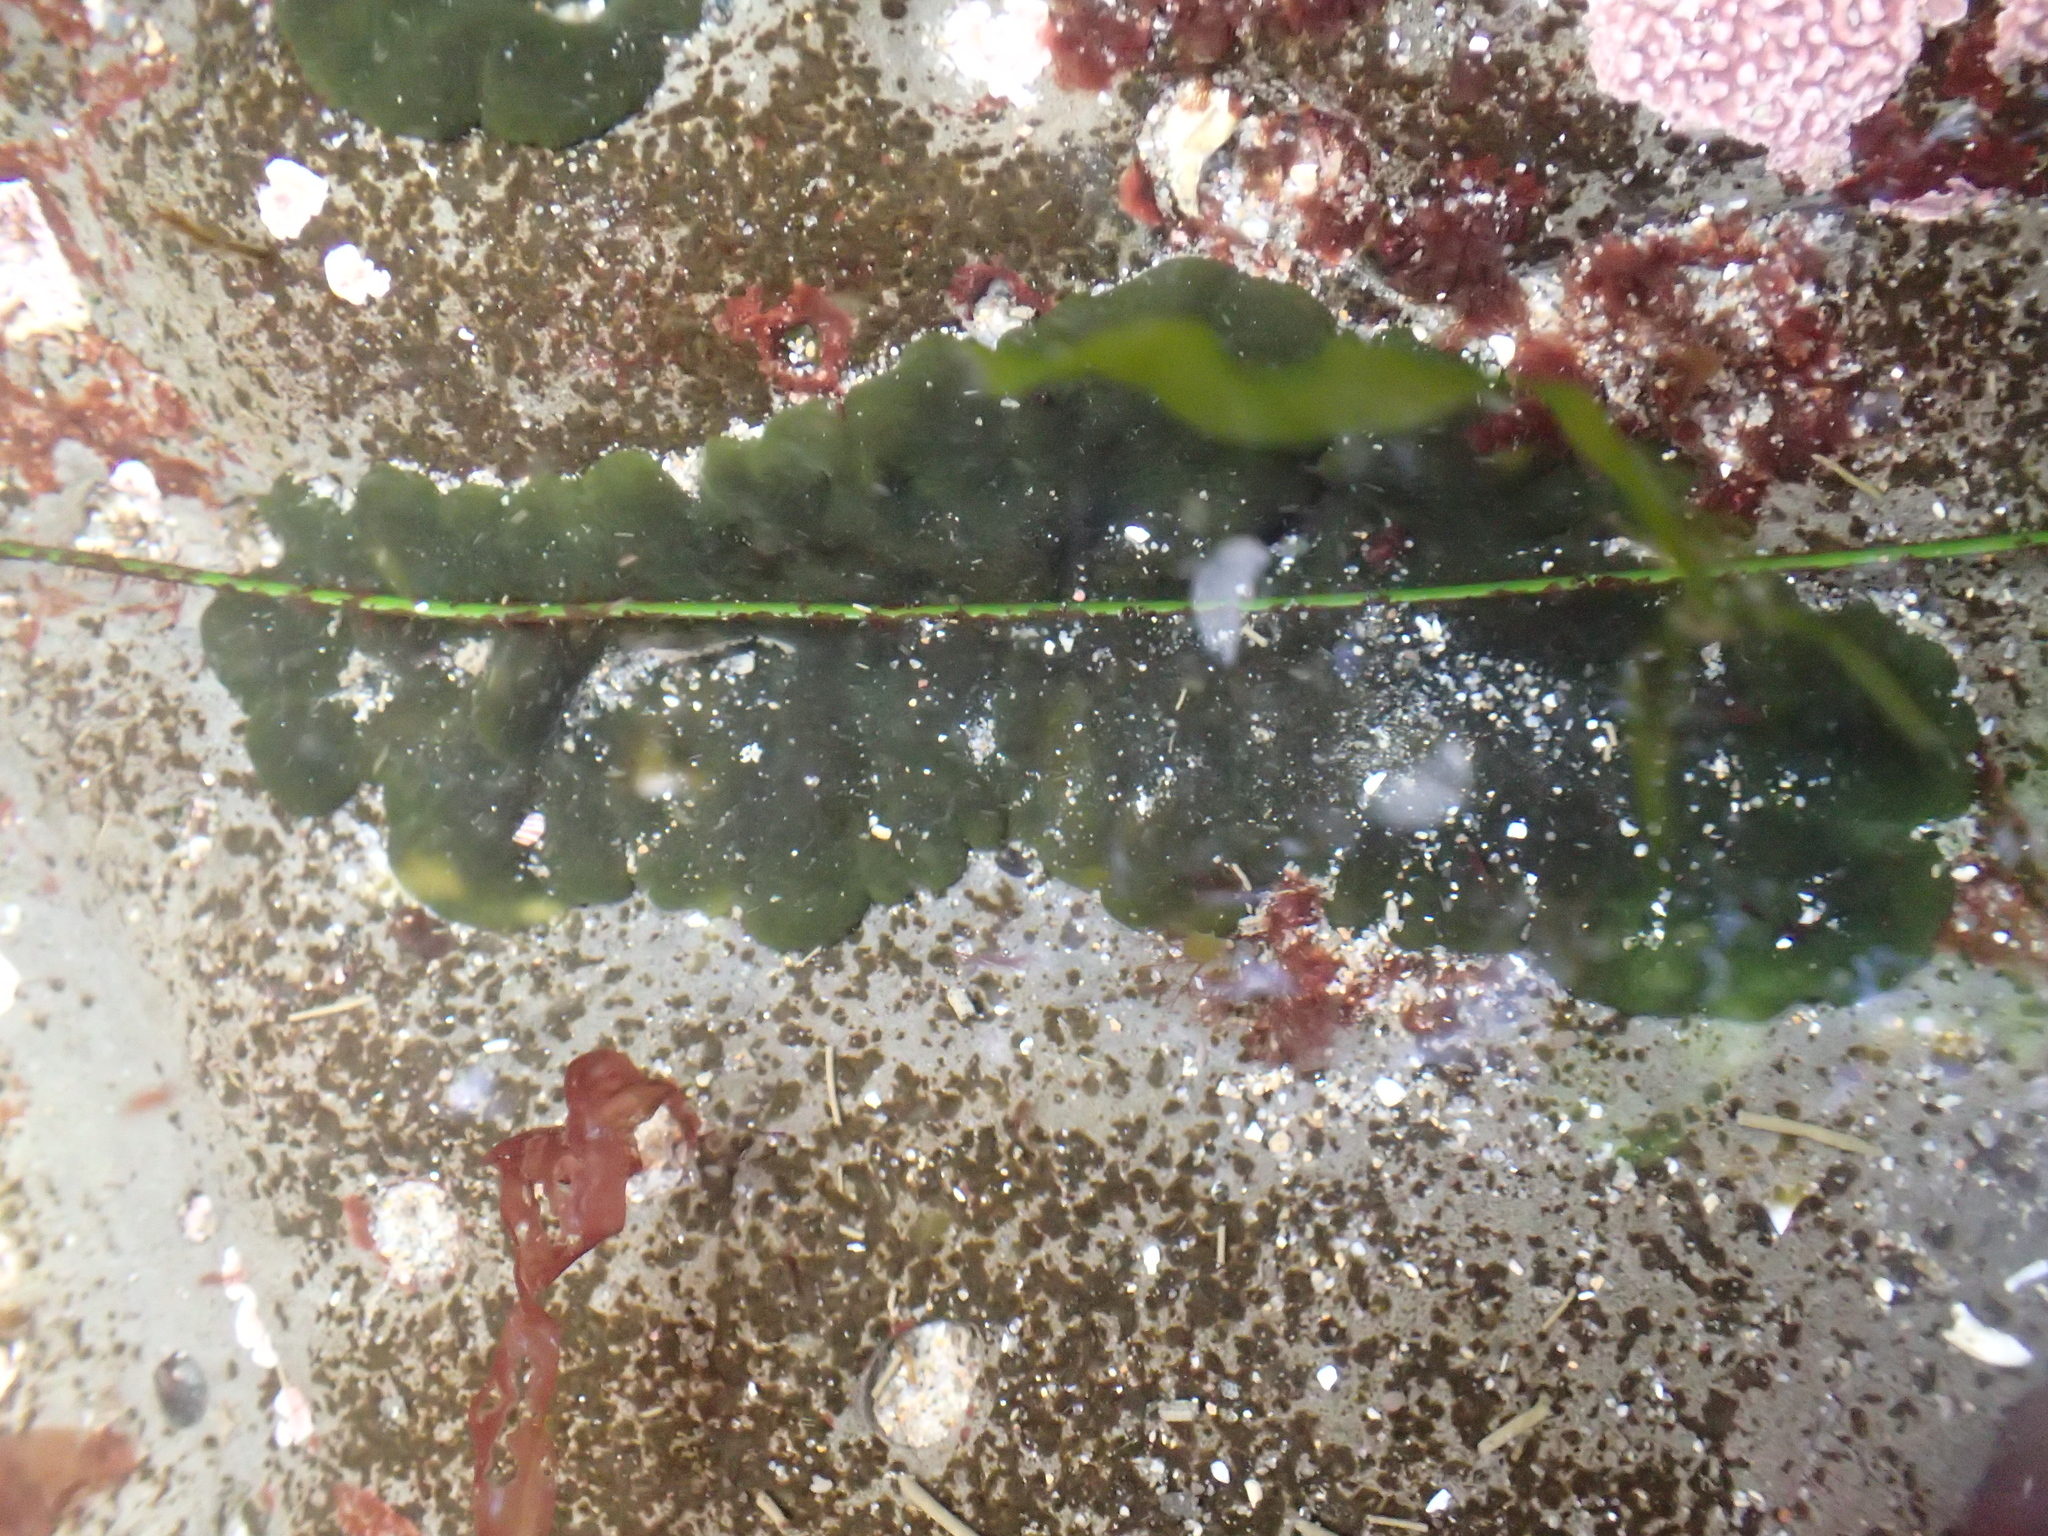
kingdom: Plantae
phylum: Chlorophyta
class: Ulvophyceae
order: Bryopsidales
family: Codiaceae
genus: Codium
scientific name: Codium setchellii
